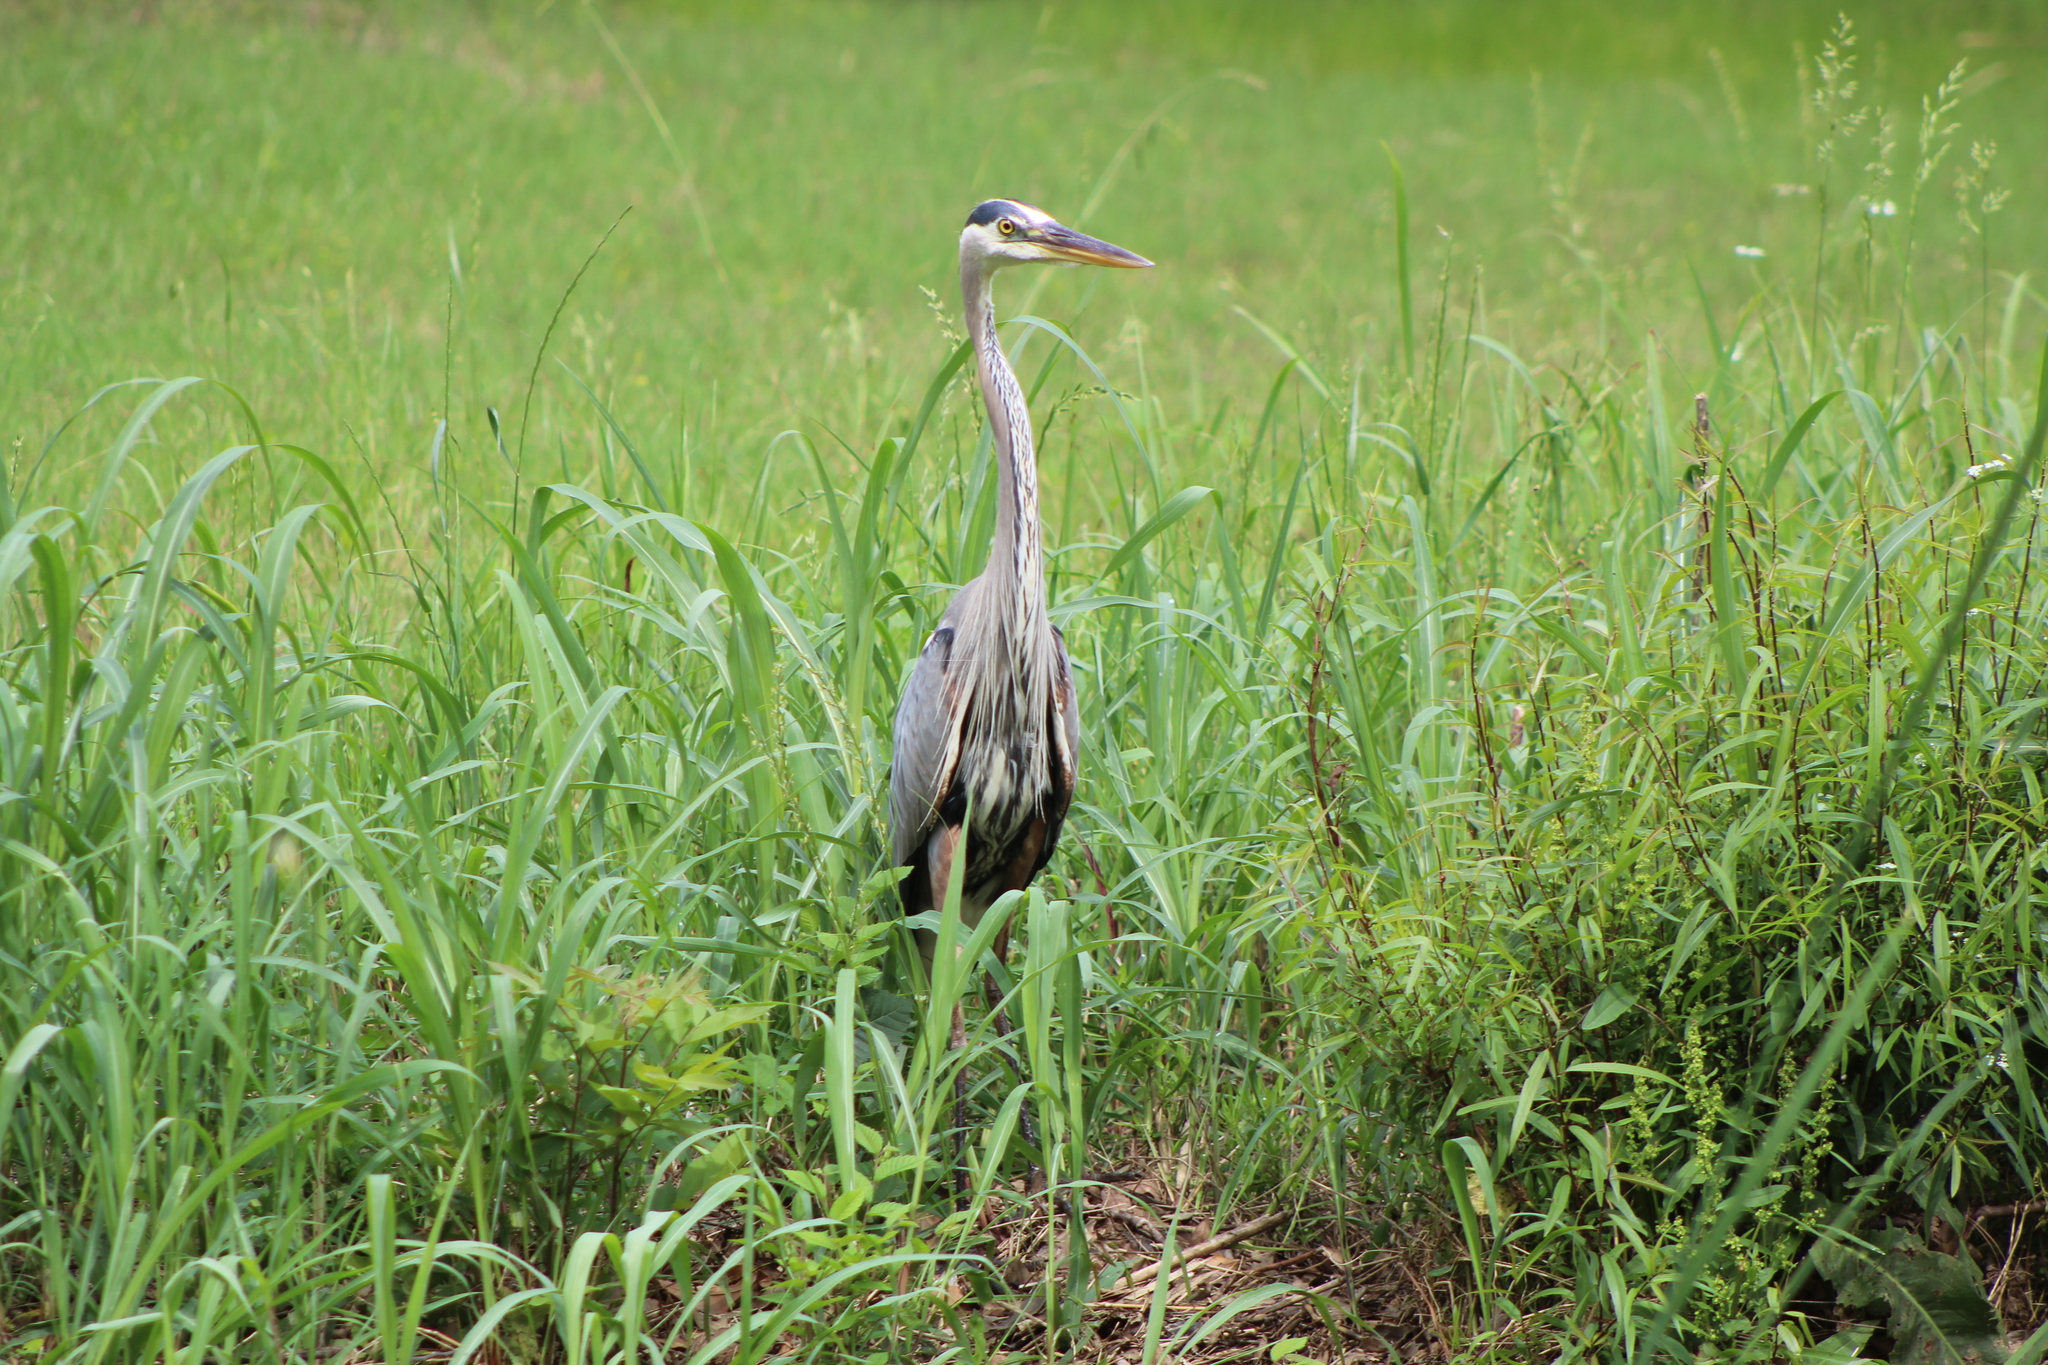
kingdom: Animalia
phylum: Chordata
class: Aves
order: Pelecaniformes
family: Ardeidae
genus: Ardea
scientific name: Ardea herodias
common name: Great blue heron
